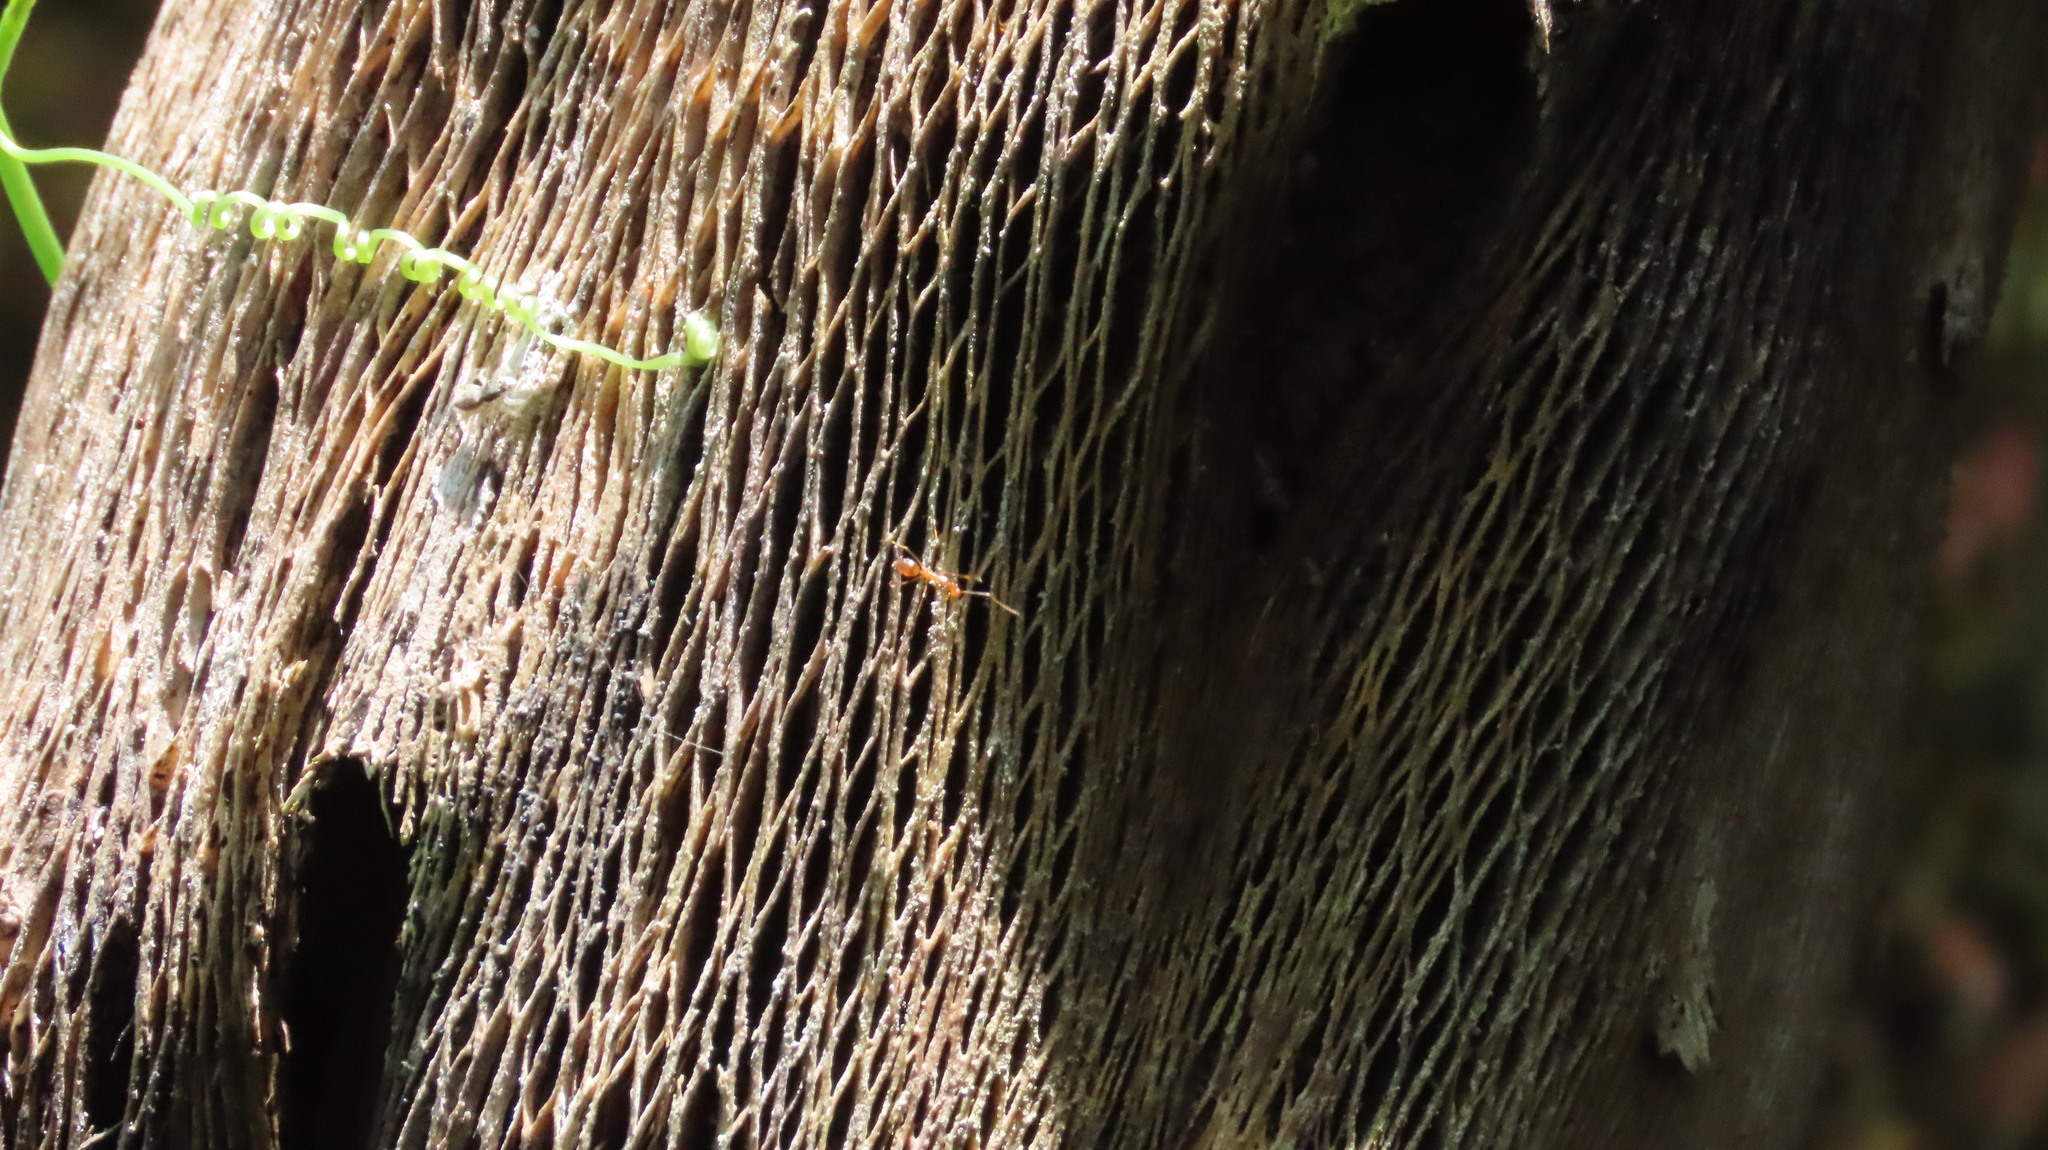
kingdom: Animalia
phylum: Arthropoda
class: Insecta
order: Hymenoptera
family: Formicidae
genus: Anoplolepis
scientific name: Anoplolepis gracilipes
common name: Ant
